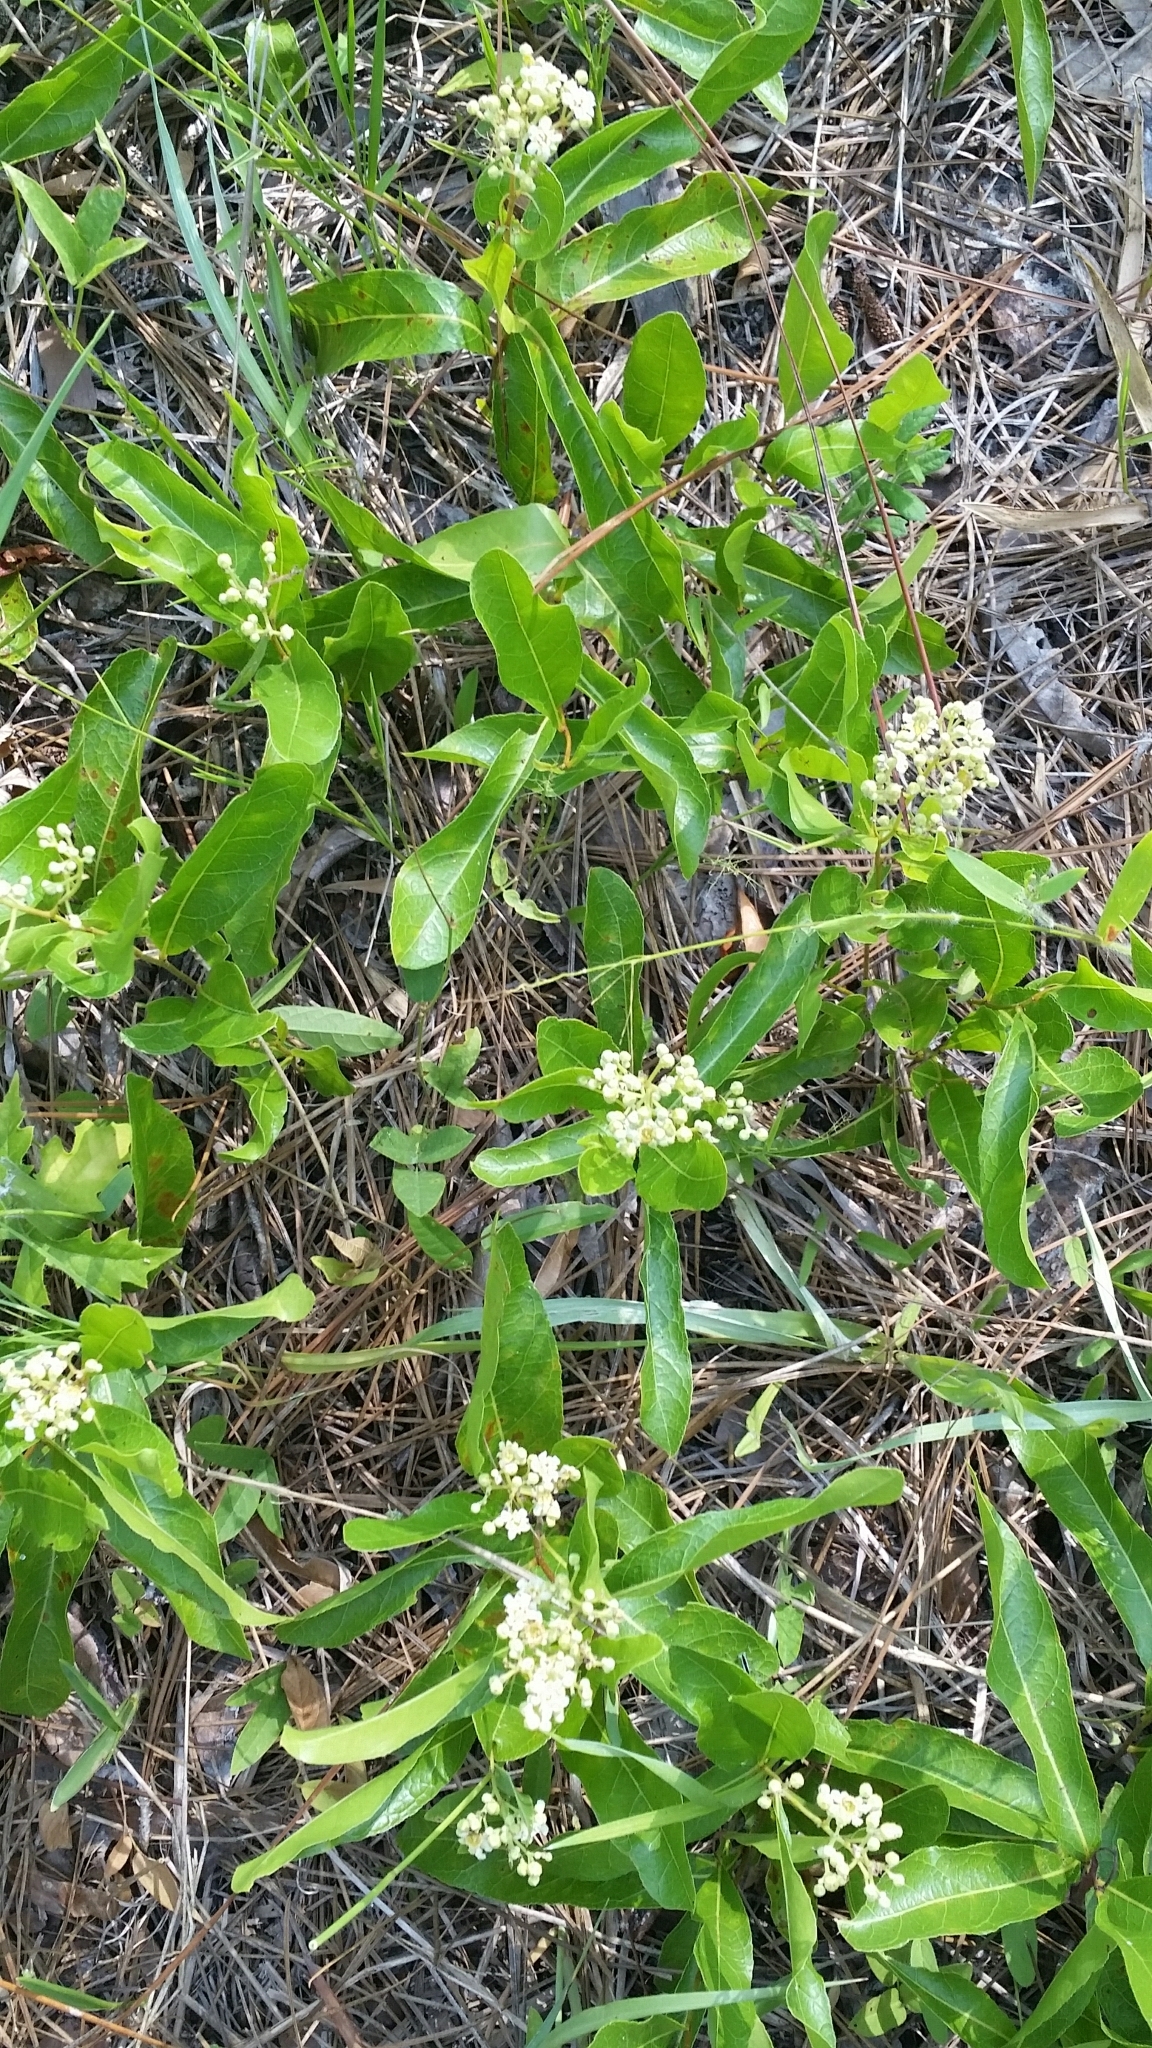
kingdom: Plantae
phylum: Tracheophyta
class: Magnoliopsida
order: Malpighiales
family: Chrysobalanaceae
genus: Geobalanus
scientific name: Geobalanus oblongifolius
